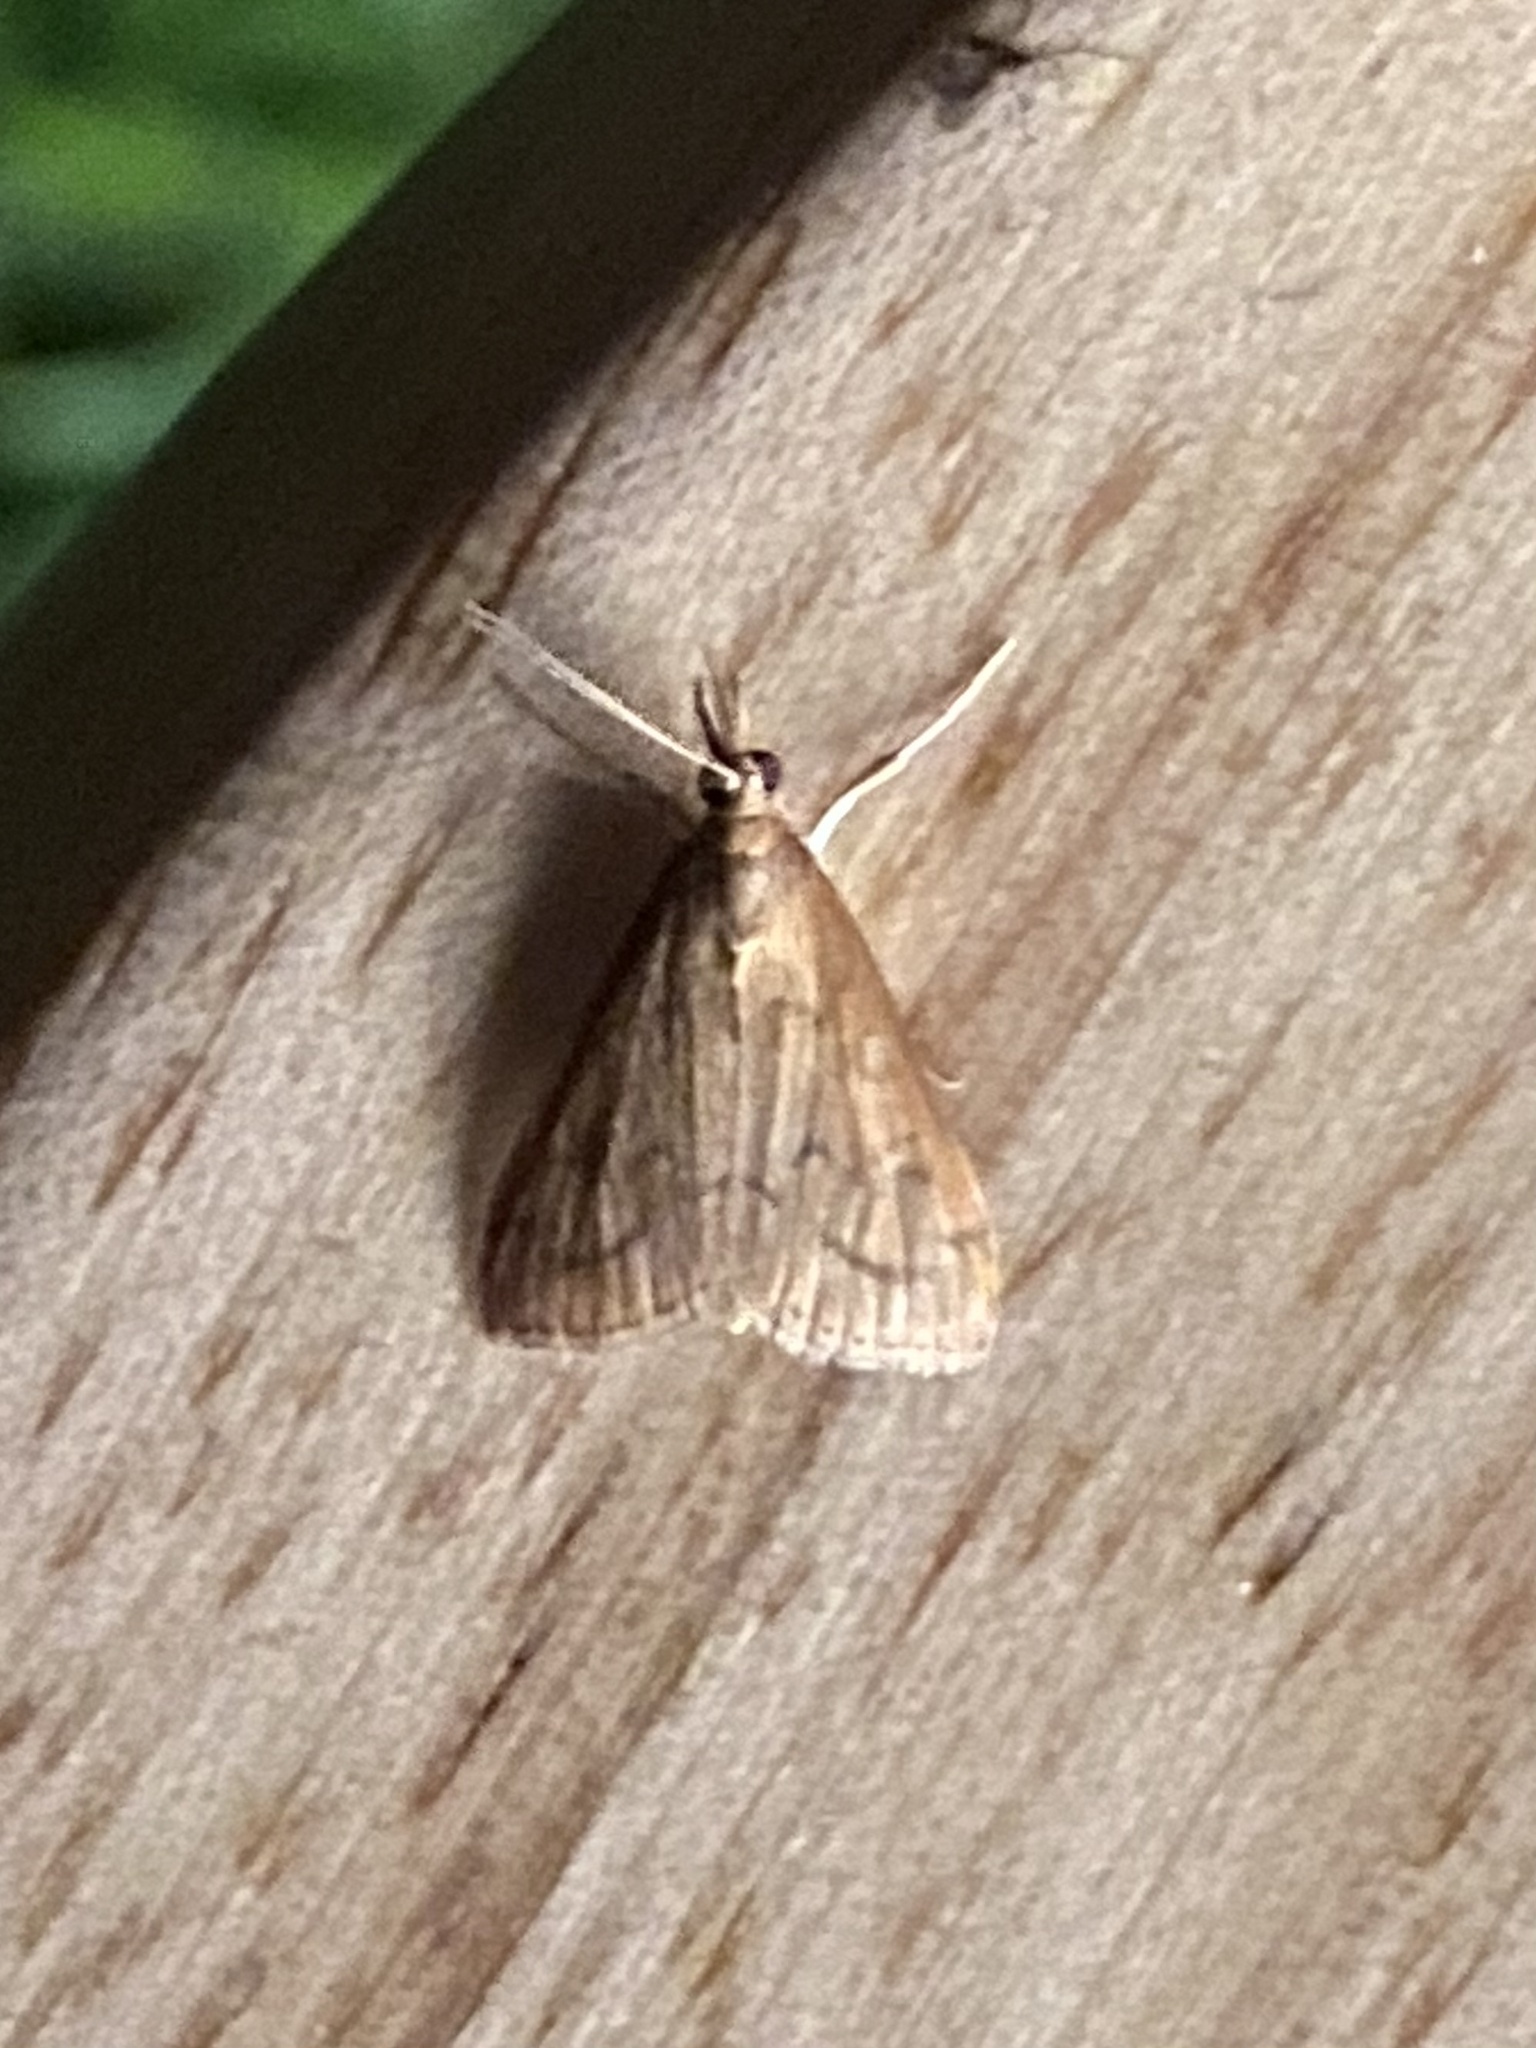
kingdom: Animalia
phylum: Arthropoda
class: Insecta
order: Lepidoptera
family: Crambidae
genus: Udea
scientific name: Udea rubigalis
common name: Celery leaftier moth
